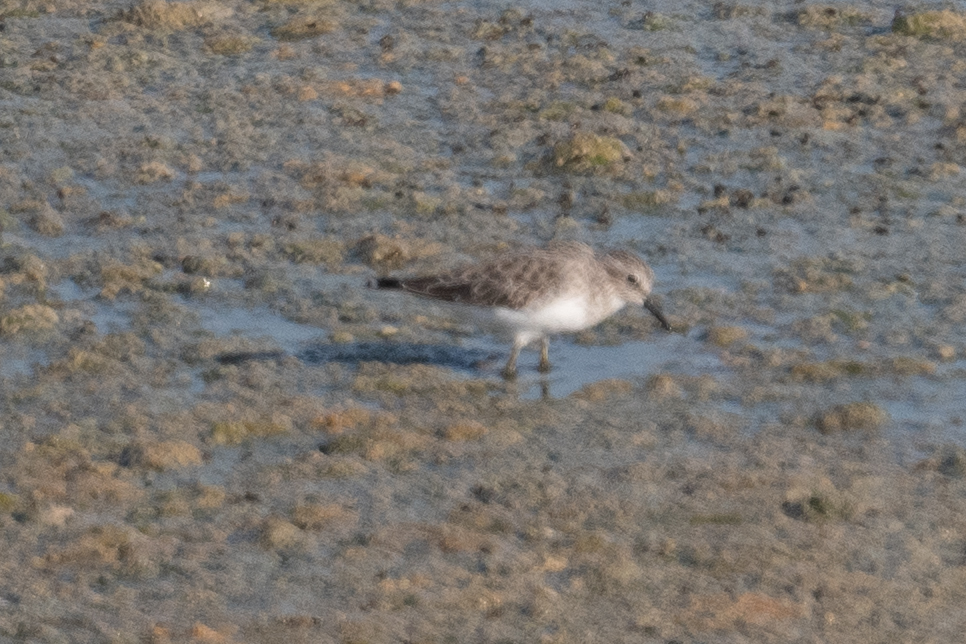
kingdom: Animalia
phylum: Chordata
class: Aves
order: Charadriiformes
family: Scolopacidae
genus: Calidris
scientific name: Calidris minutilla
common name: Least sandpiper
